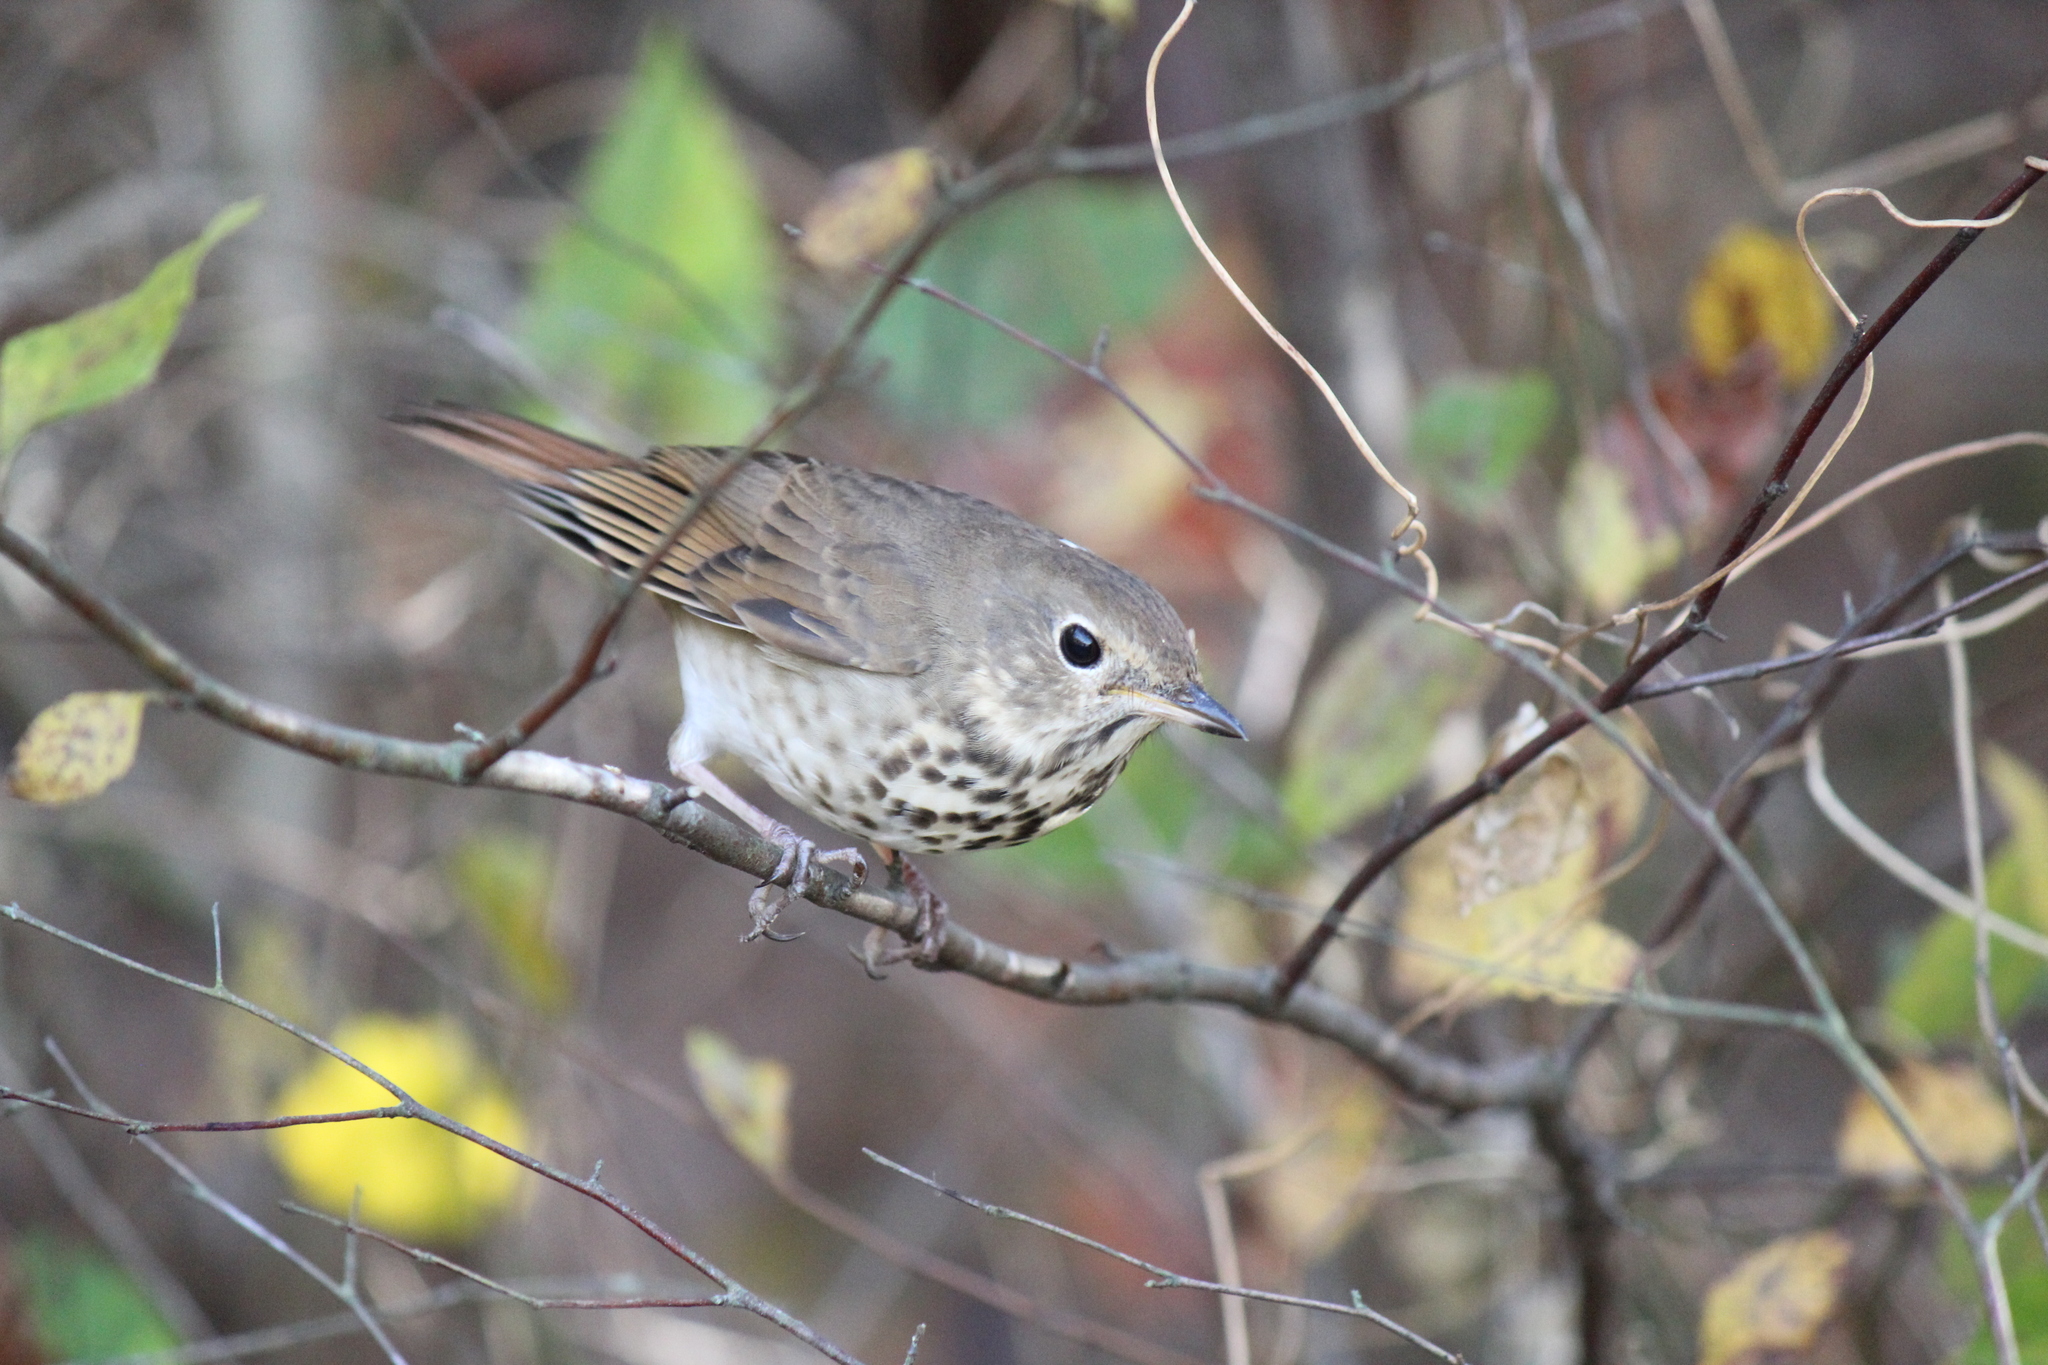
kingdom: Animalia
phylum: Chordata
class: Aves
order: Passeriformes
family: Turdidae
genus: Catharus
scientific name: Catharus guttatus
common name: Hermit thrush
